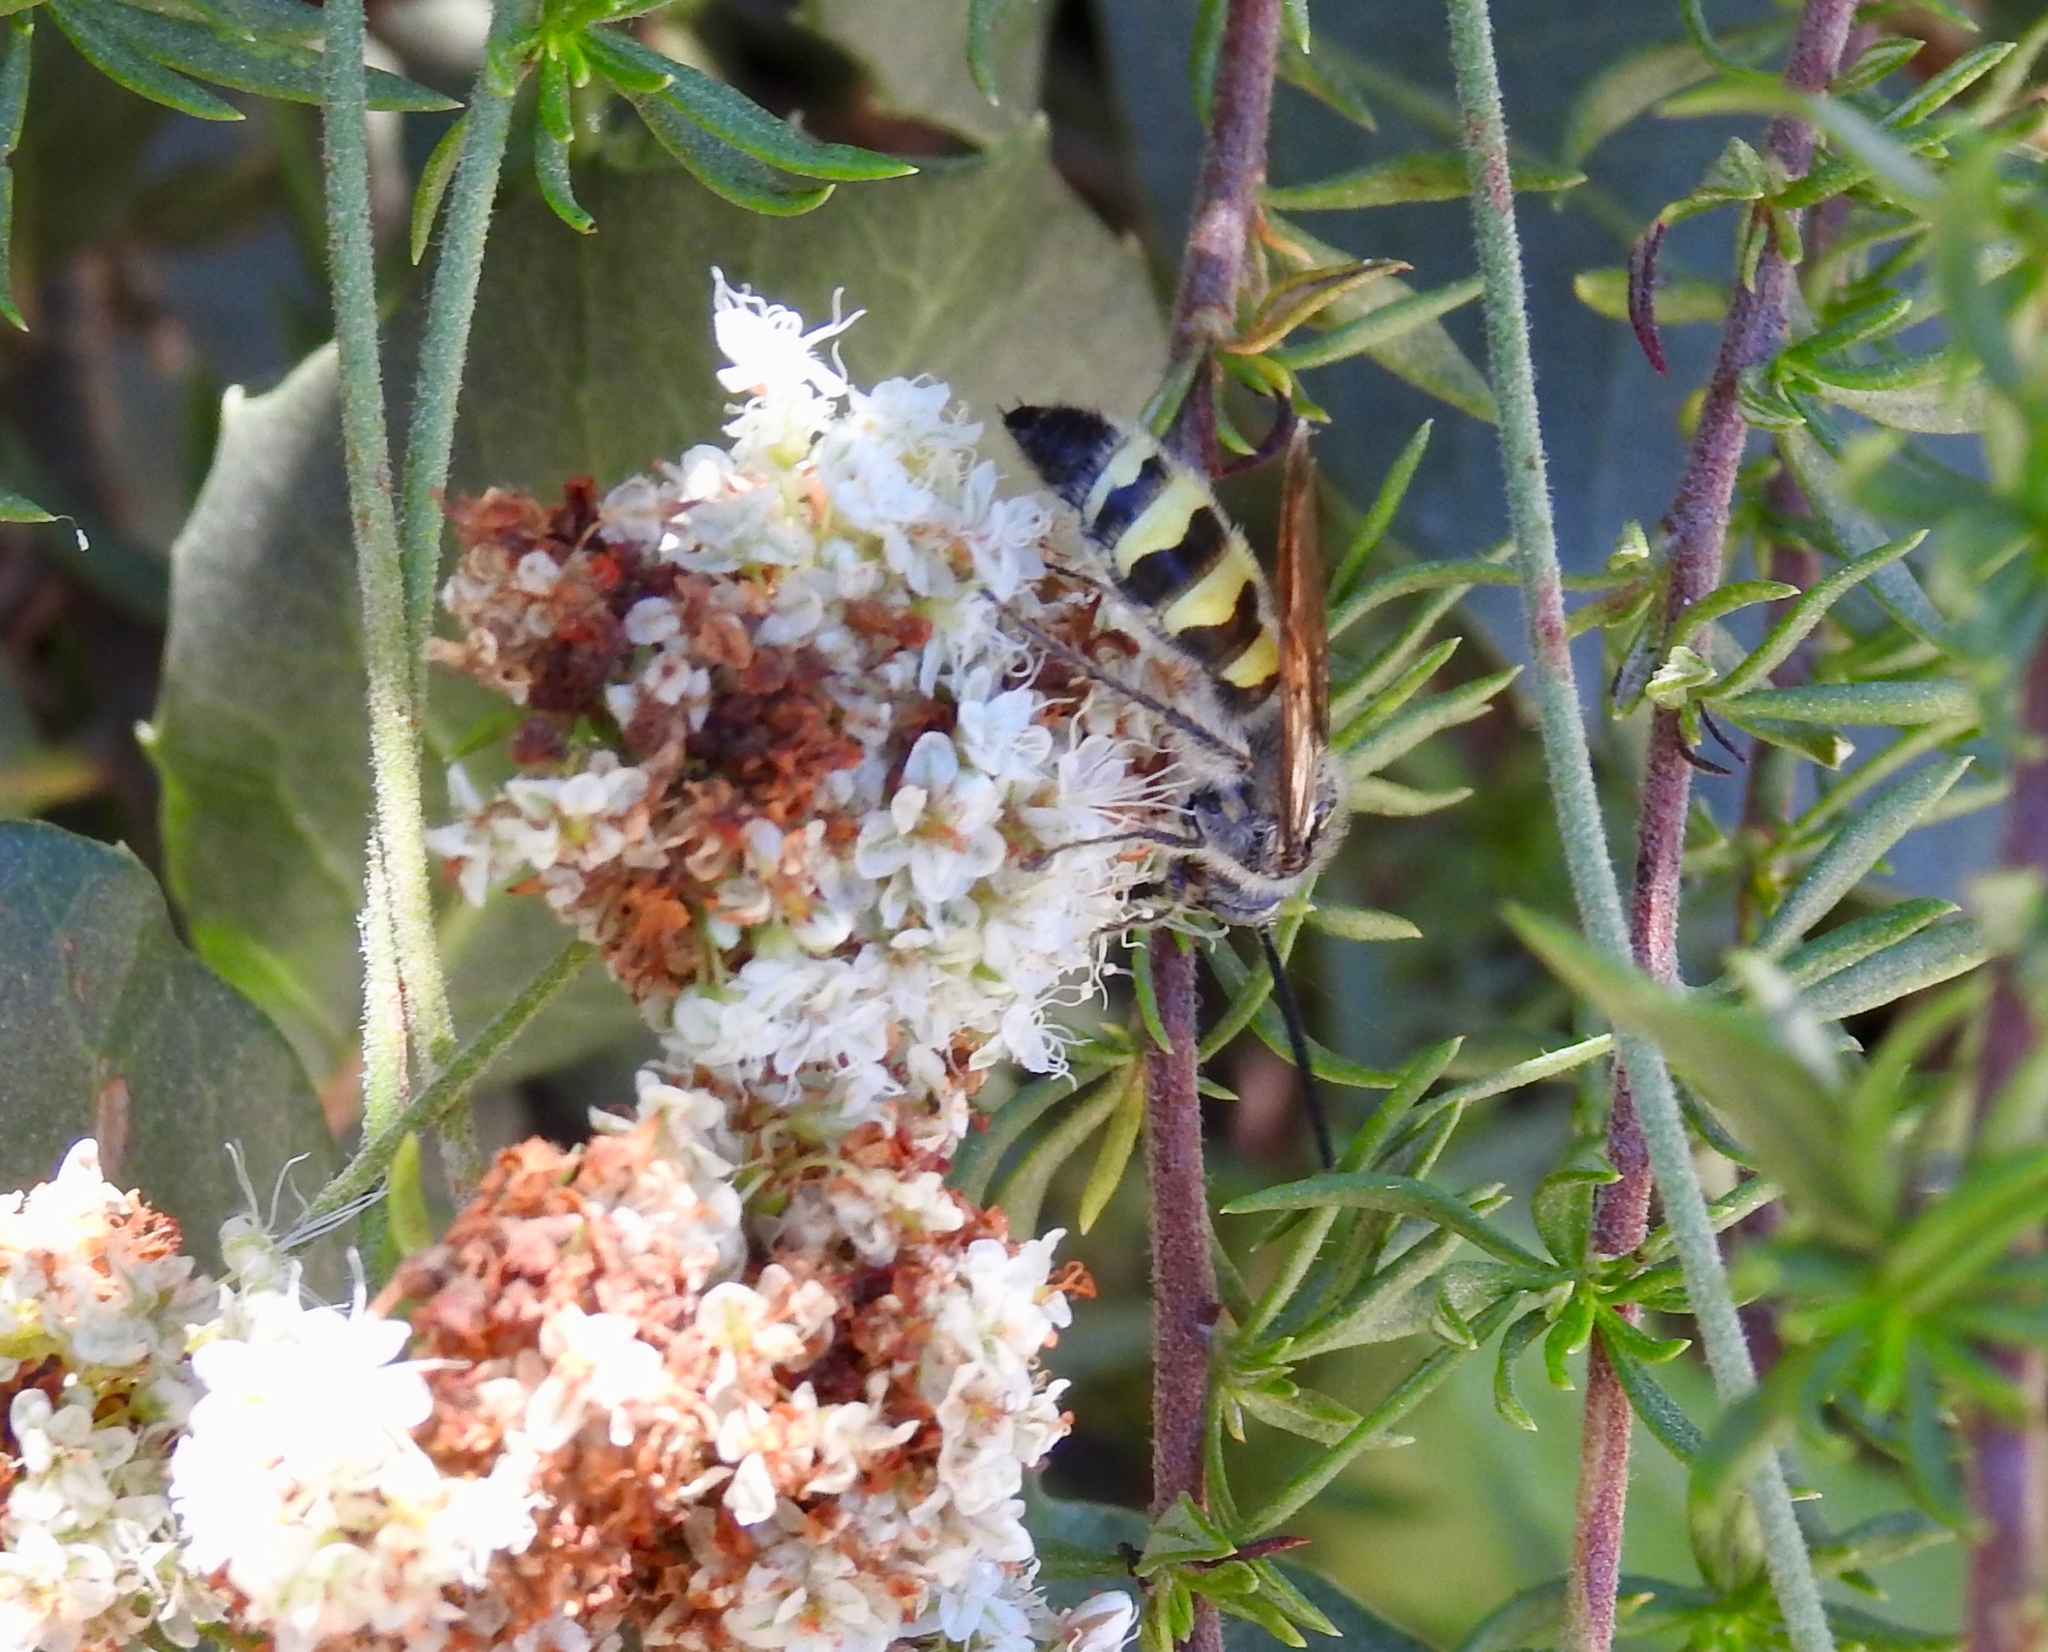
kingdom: Animalia
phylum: Arthropoda
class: Insecta
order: Hymenoptera
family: Scoliidae
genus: Dielis
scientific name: Dielis tolteca
